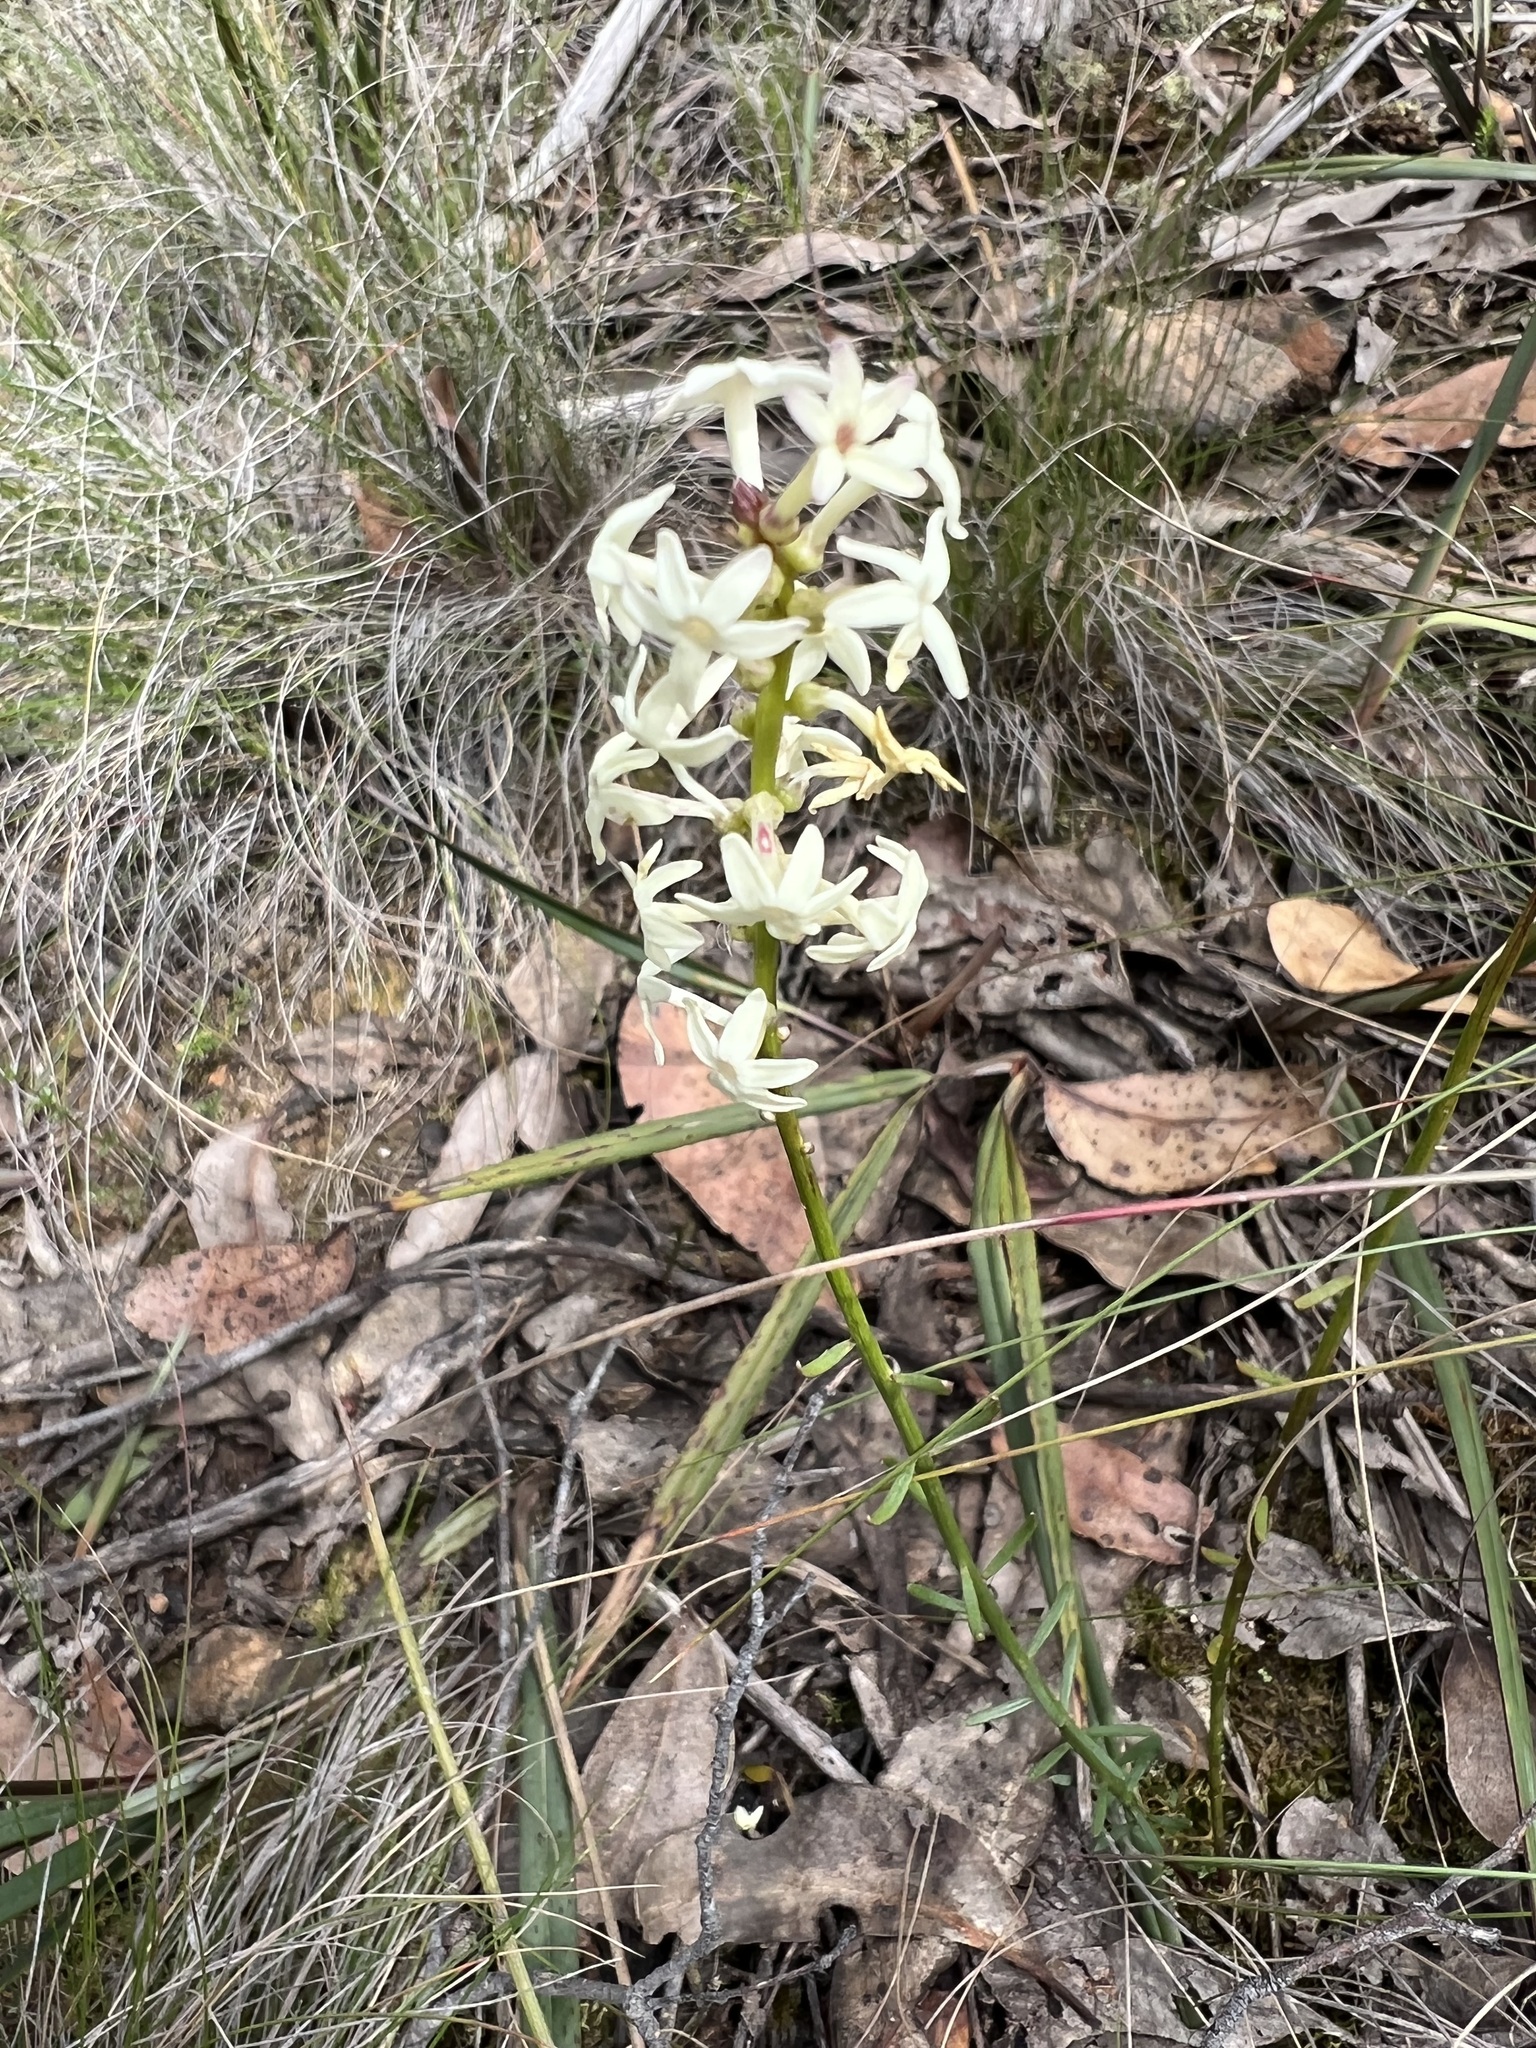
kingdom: Plantae
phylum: Tracheophyta
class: Magnoliopsida
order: Celastrales
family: Celastraceae
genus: Stackhousia
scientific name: Stackhousia monogyna
